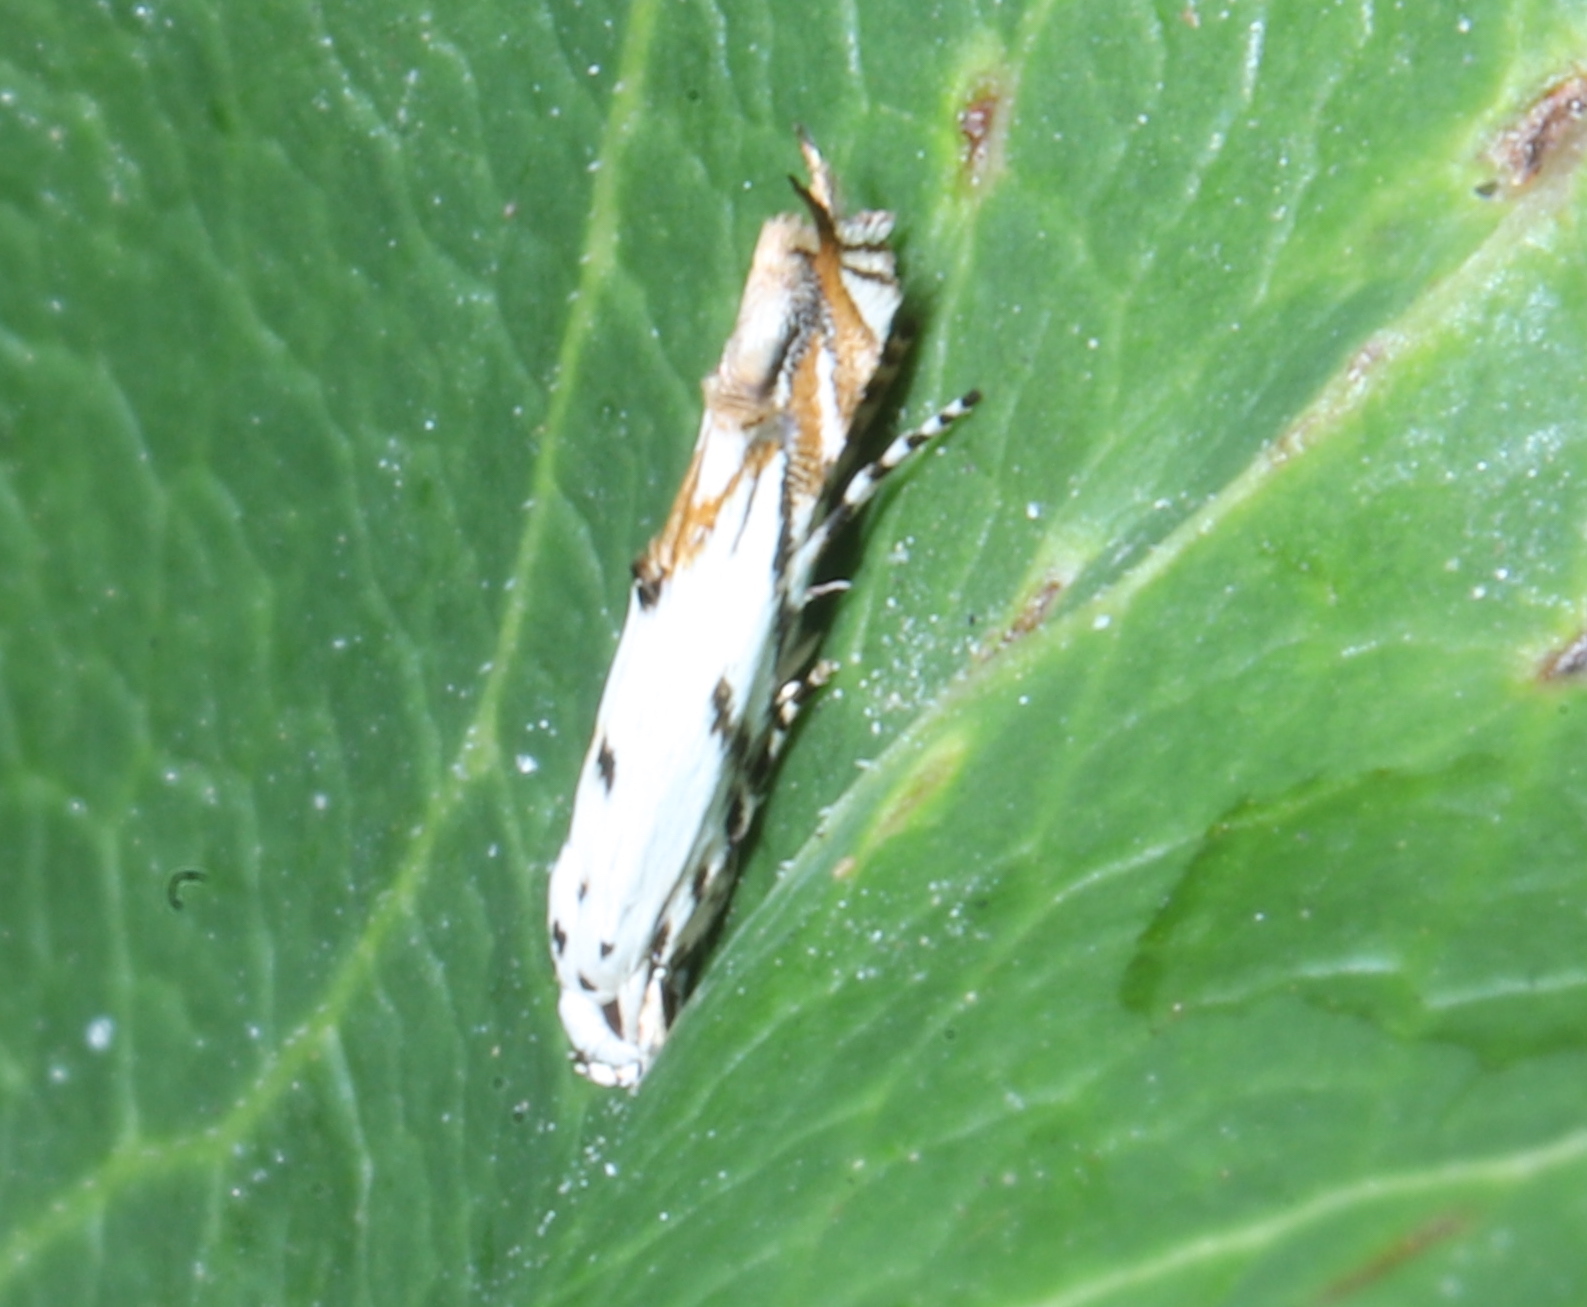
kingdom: Animalia
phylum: Arthropoda
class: Insecta
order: Lepidoptera
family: Momphidae
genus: Mompha
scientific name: Mompha eloisella
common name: Red-streaked mompha moth
